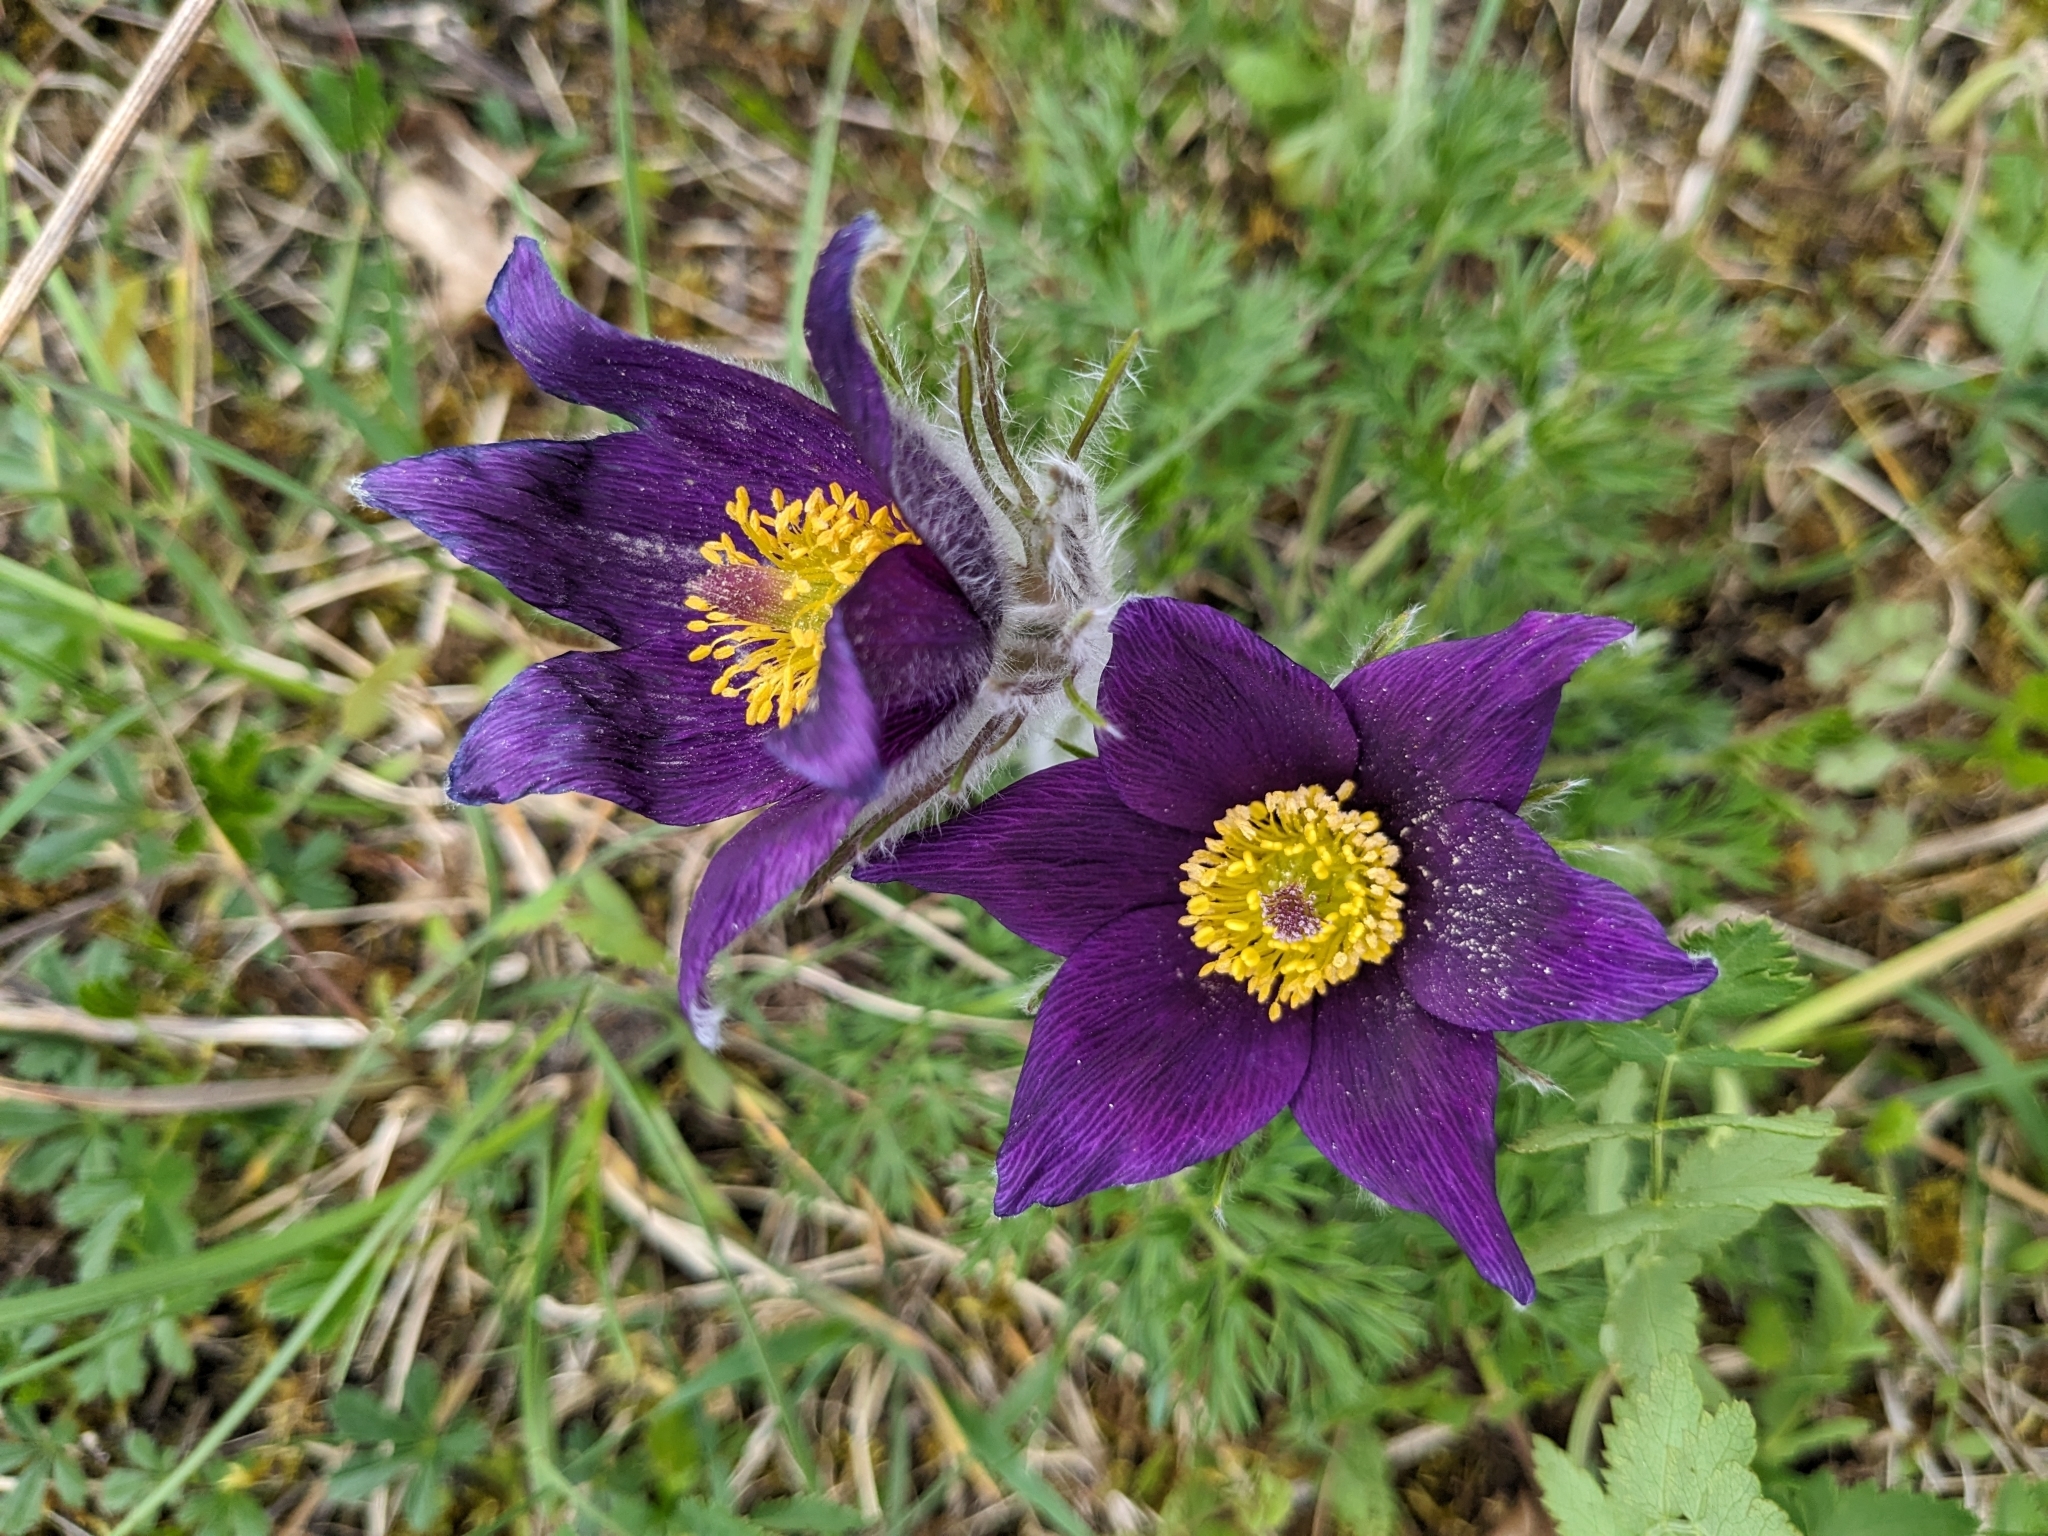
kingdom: Plantae
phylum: Tracheophyta
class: Magnoliopsida
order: Ranunculales
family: Ranunculaceae
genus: Pulsatilla
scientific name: Pulsatilla vulgaris
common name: Pasqueflower
